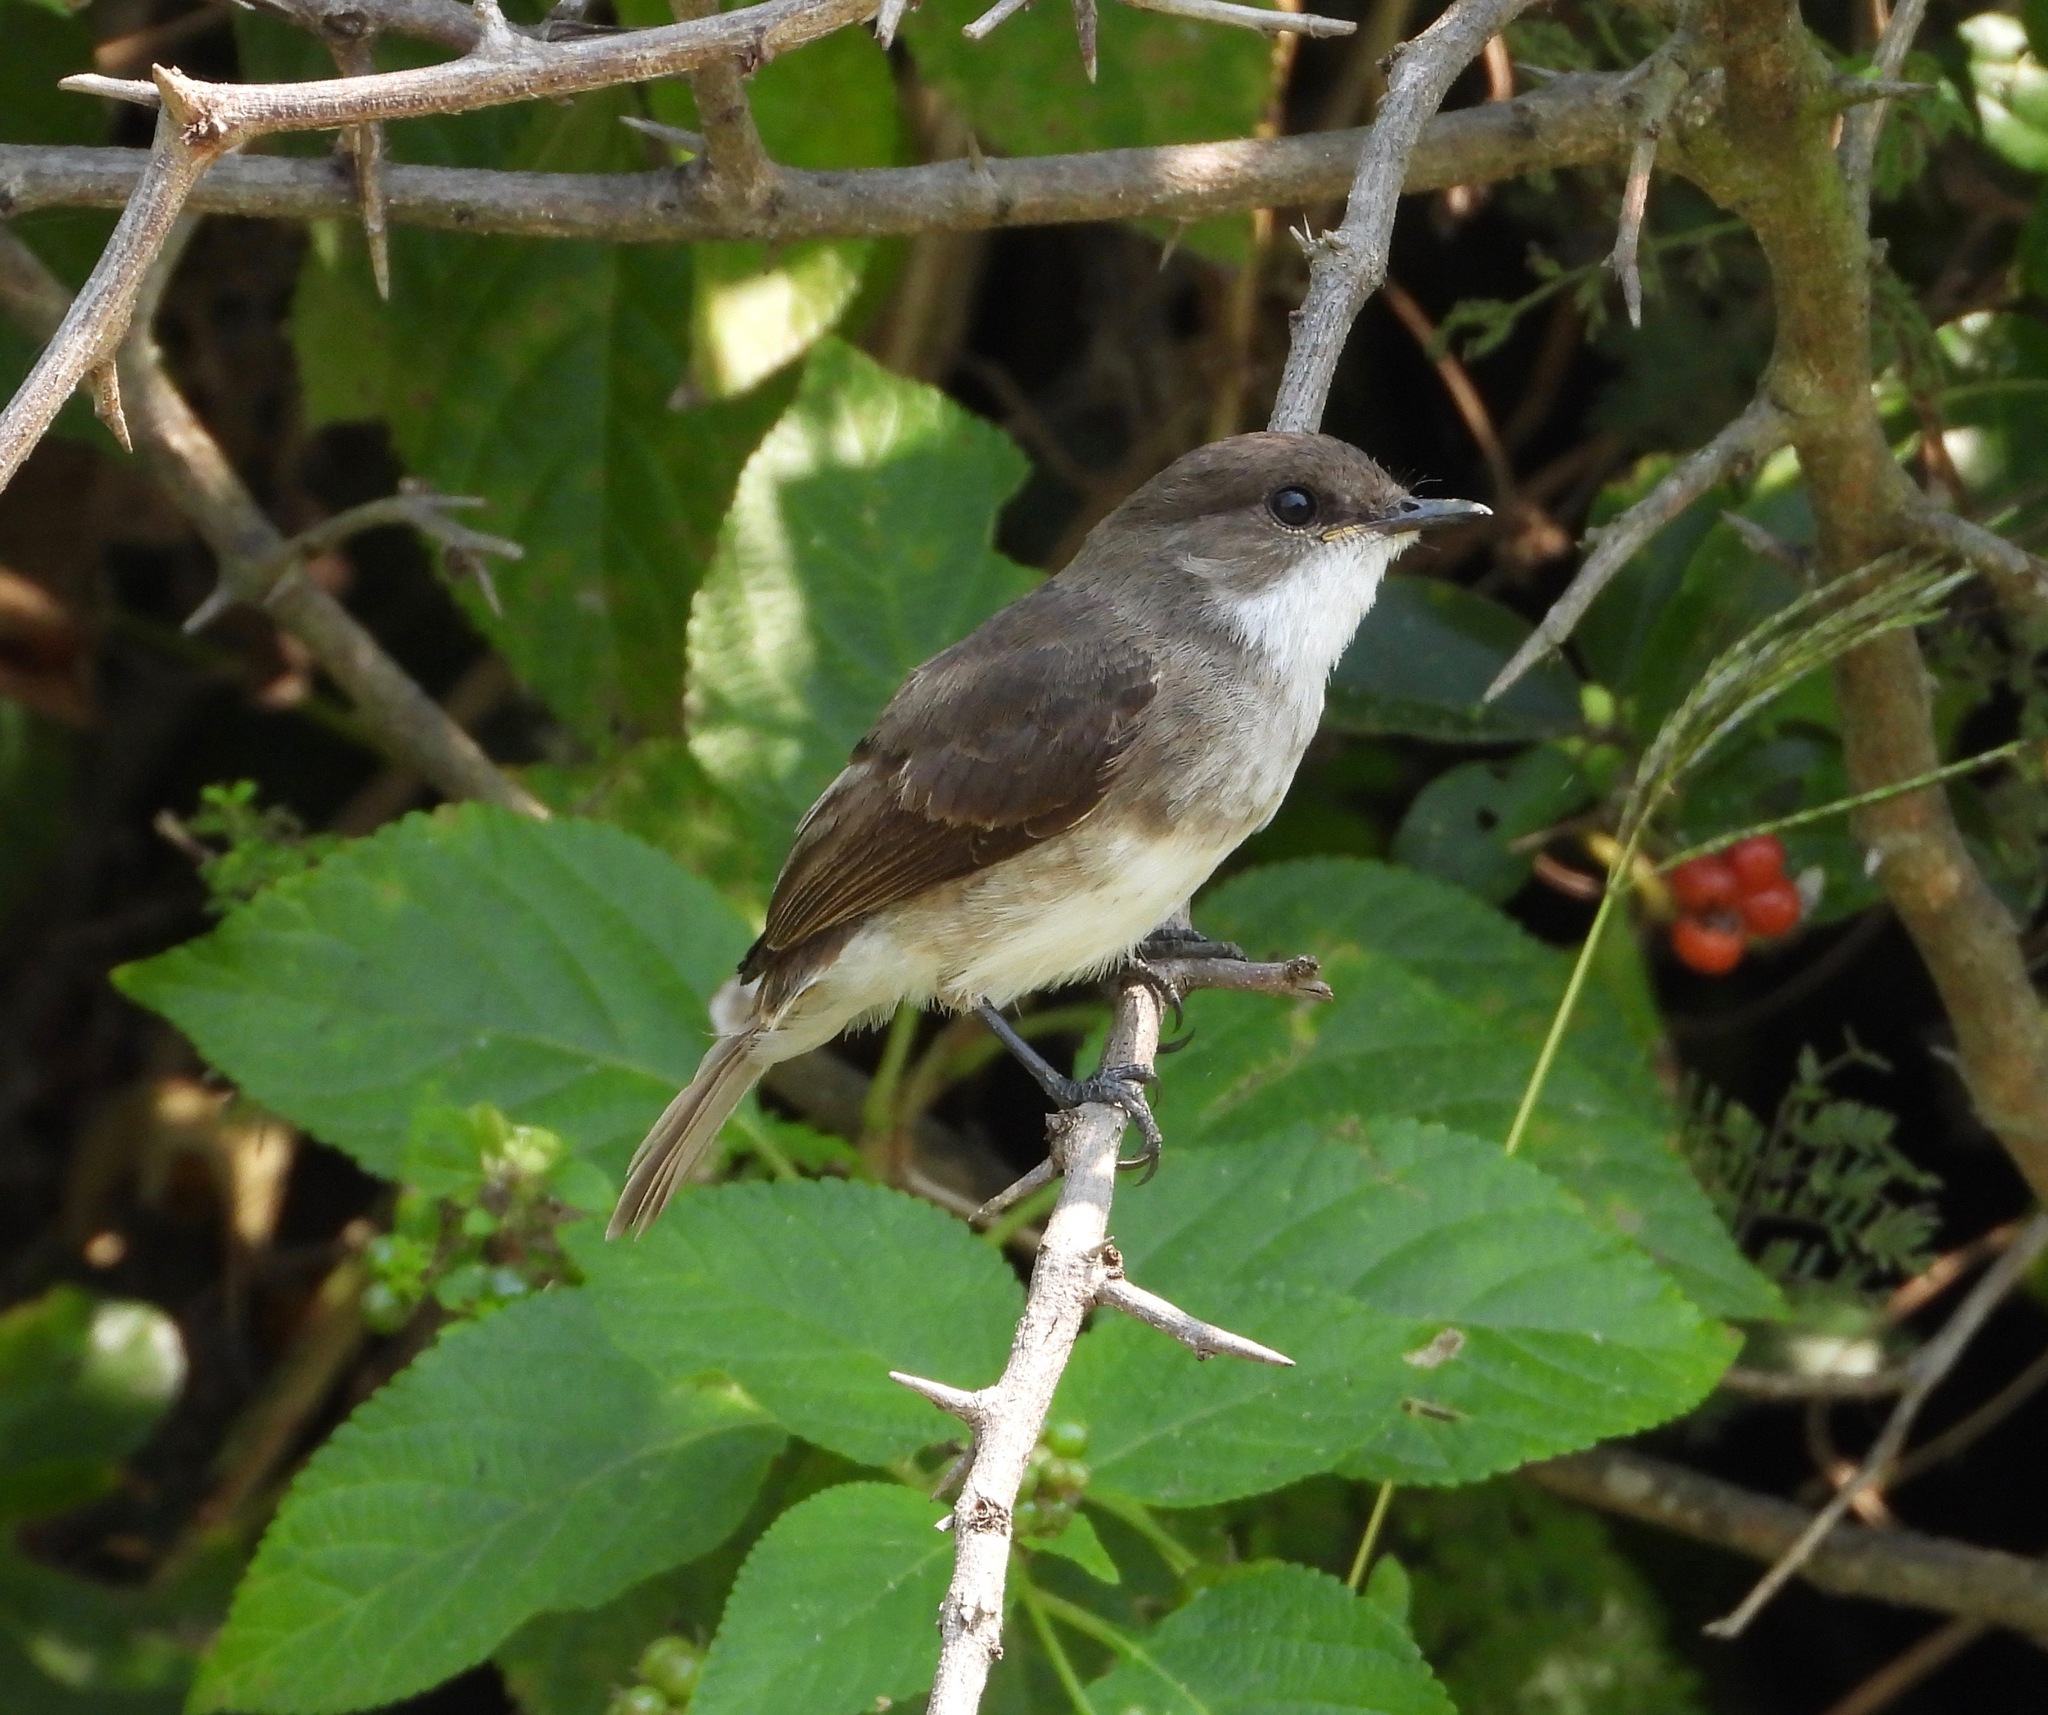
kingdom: Animalia
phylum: Chordata
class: Aves
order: Passeriformes
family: Muscicapidae
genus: Muscicapa
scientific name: Muscicapa aquatica
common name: Swamp flycatcher
